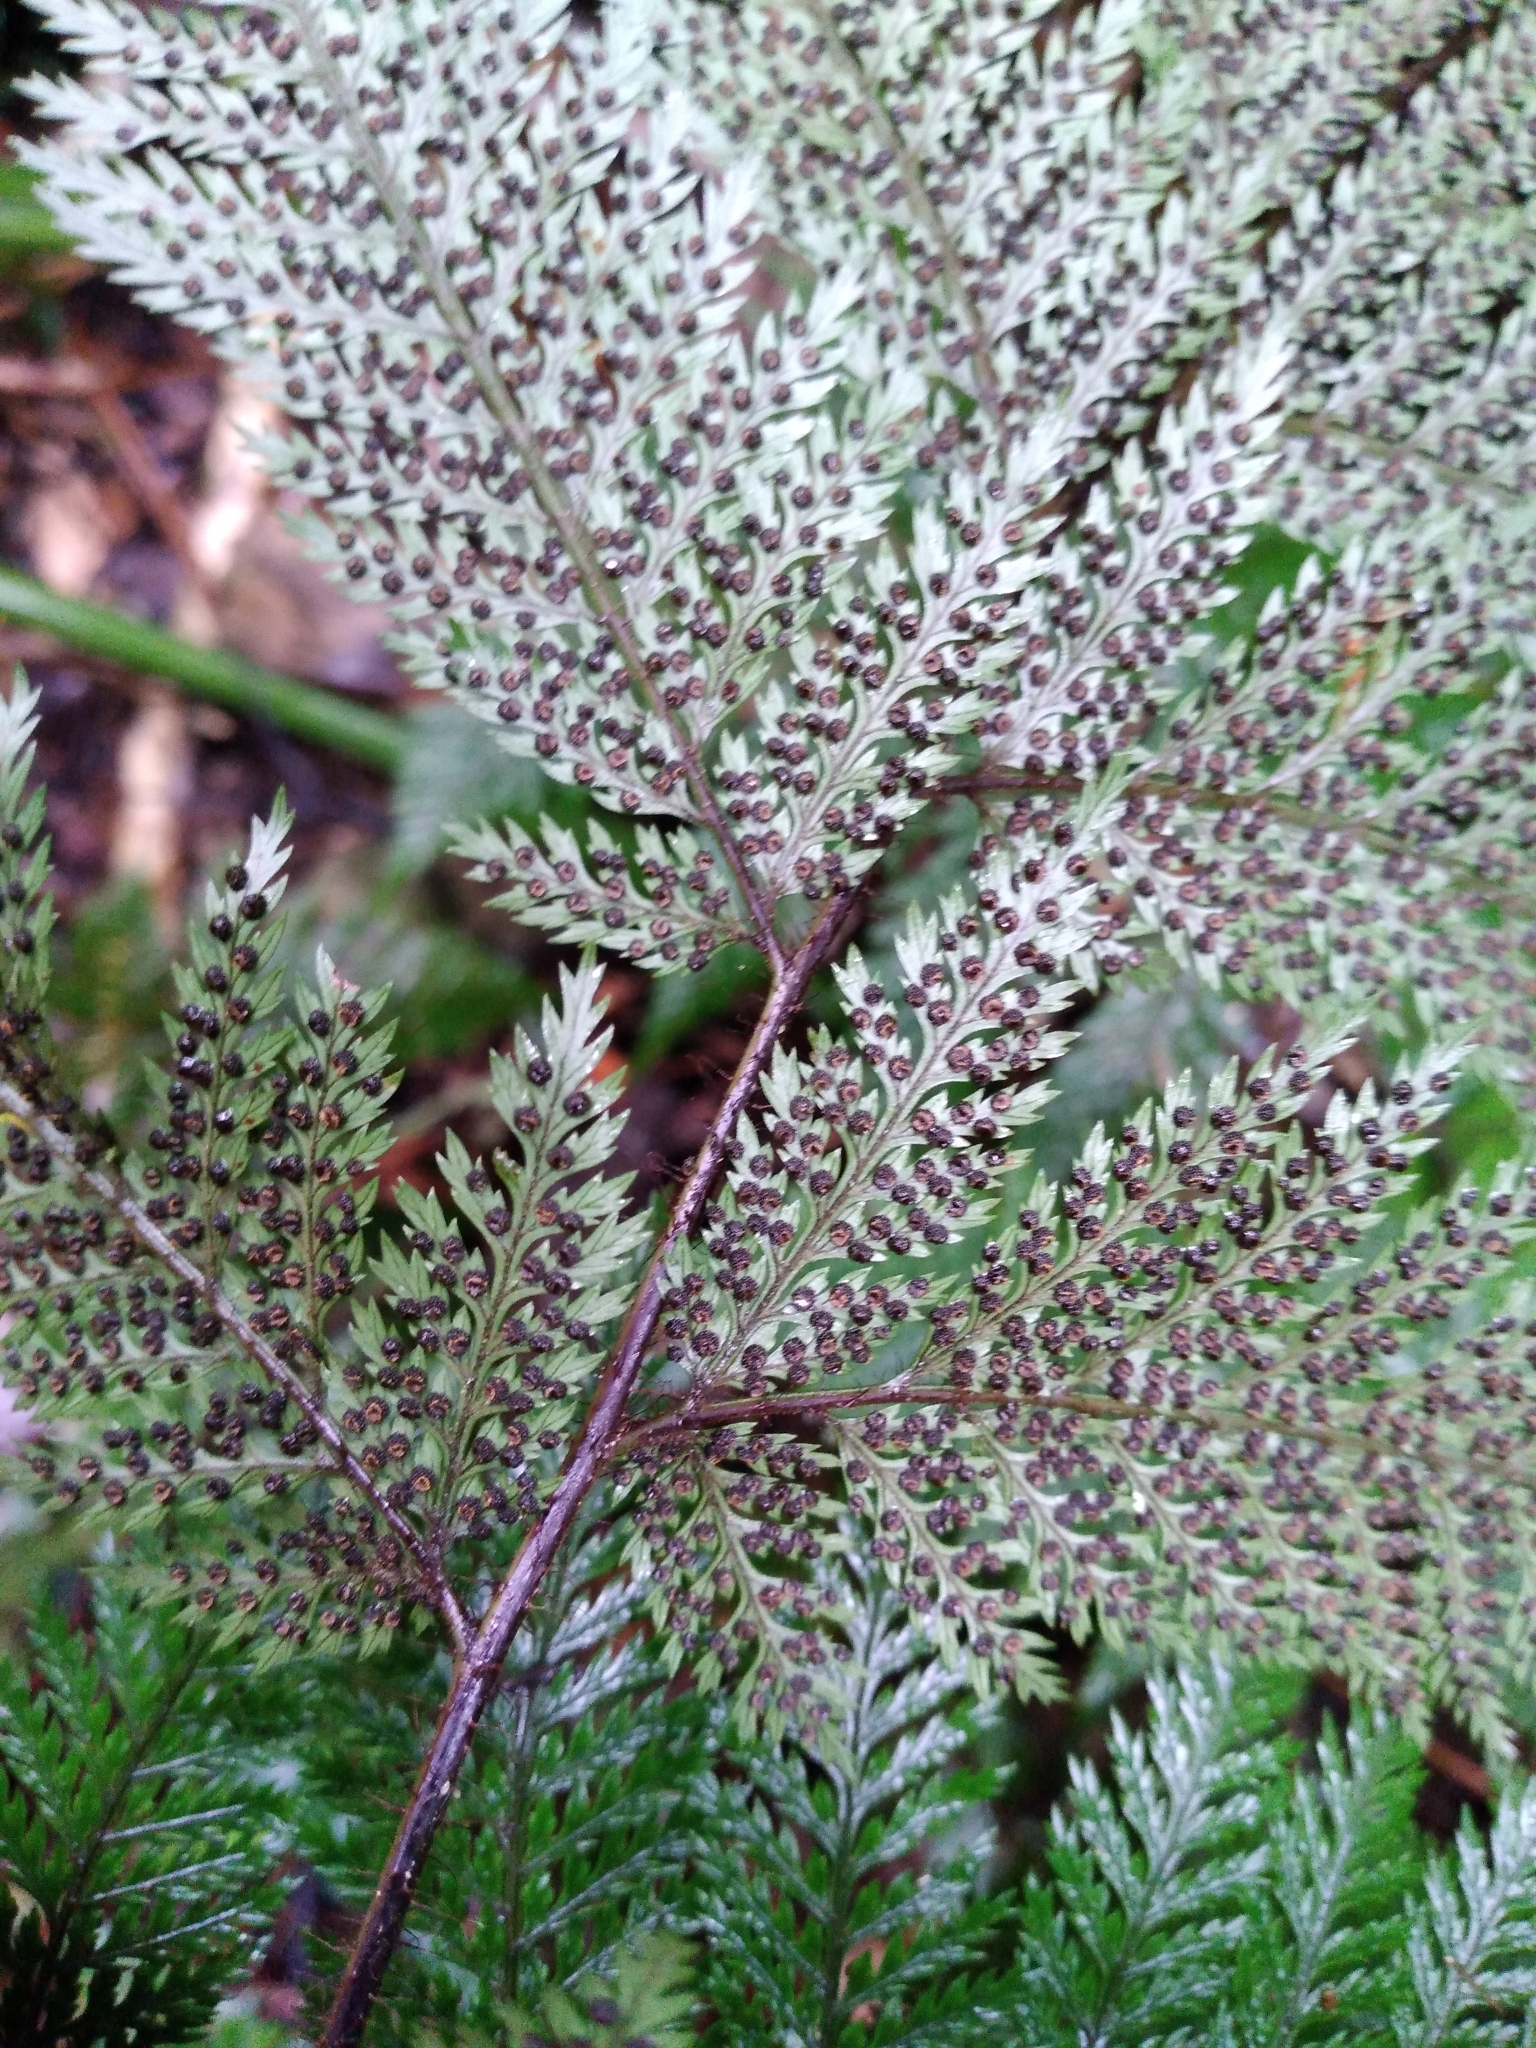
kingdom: Plantae
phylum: Tracheophyta
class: Polypodiopsida
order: Polypodiales
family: Dryopteridaceae
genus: Lastreopsis
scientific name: Lastreopsis hispida
